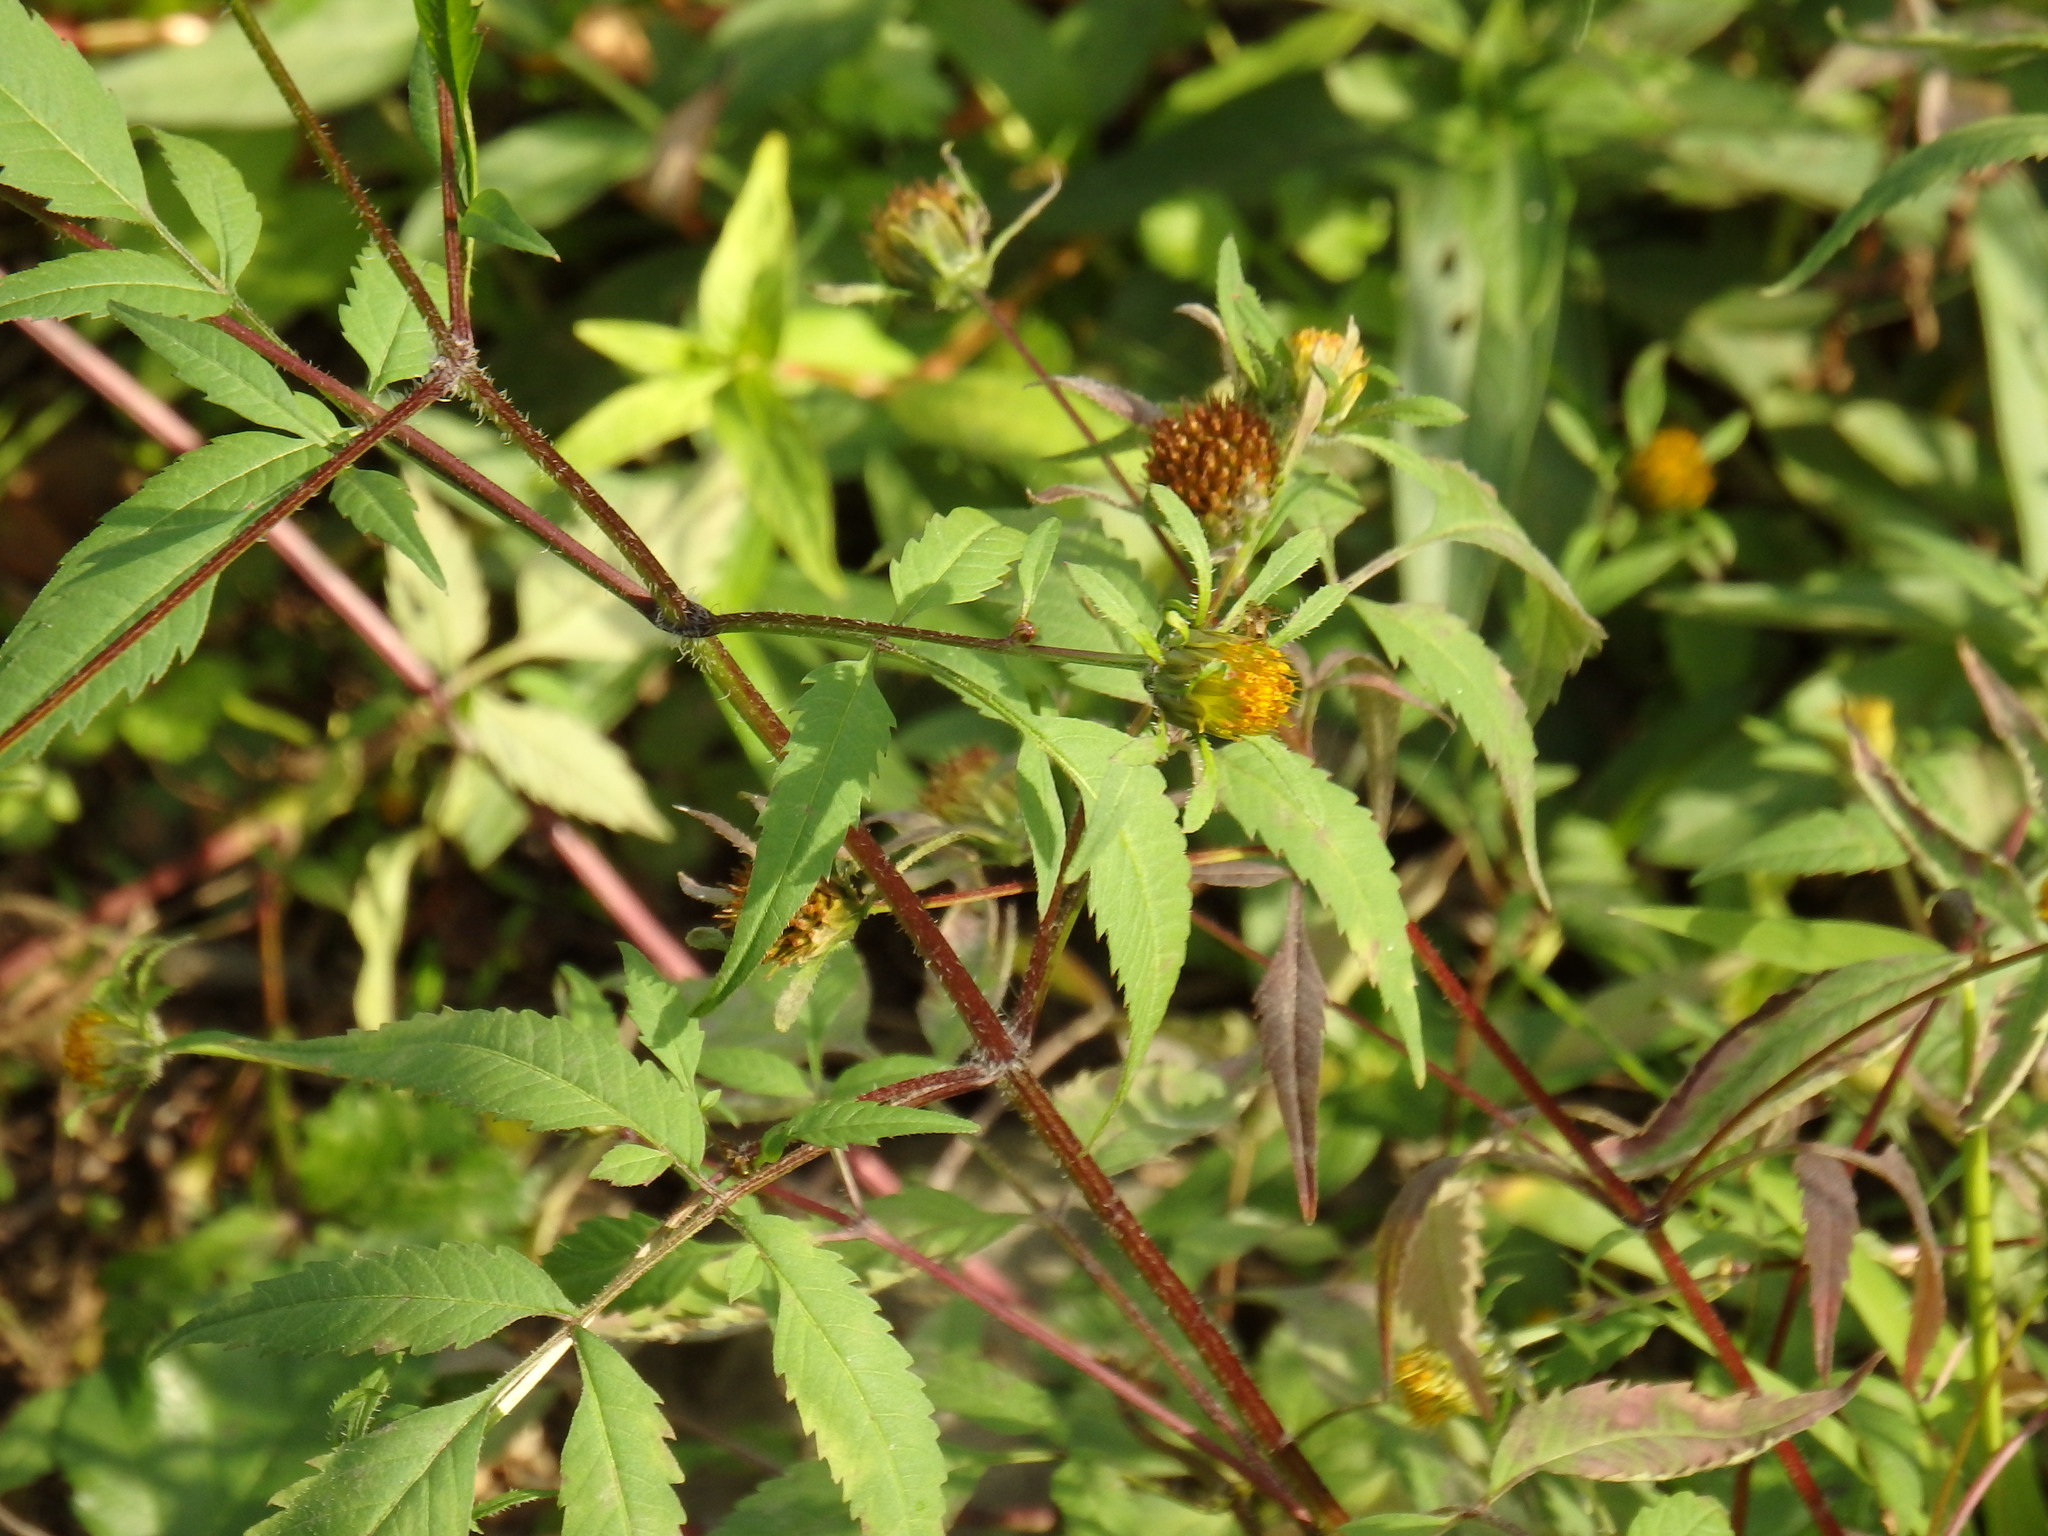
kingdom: Plantae
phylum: Tracheophyta
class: Magnoliopsida
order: Asterales
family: Asteraceae
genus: Bidens
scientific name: Bidens frondosa
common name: Beggarticks
